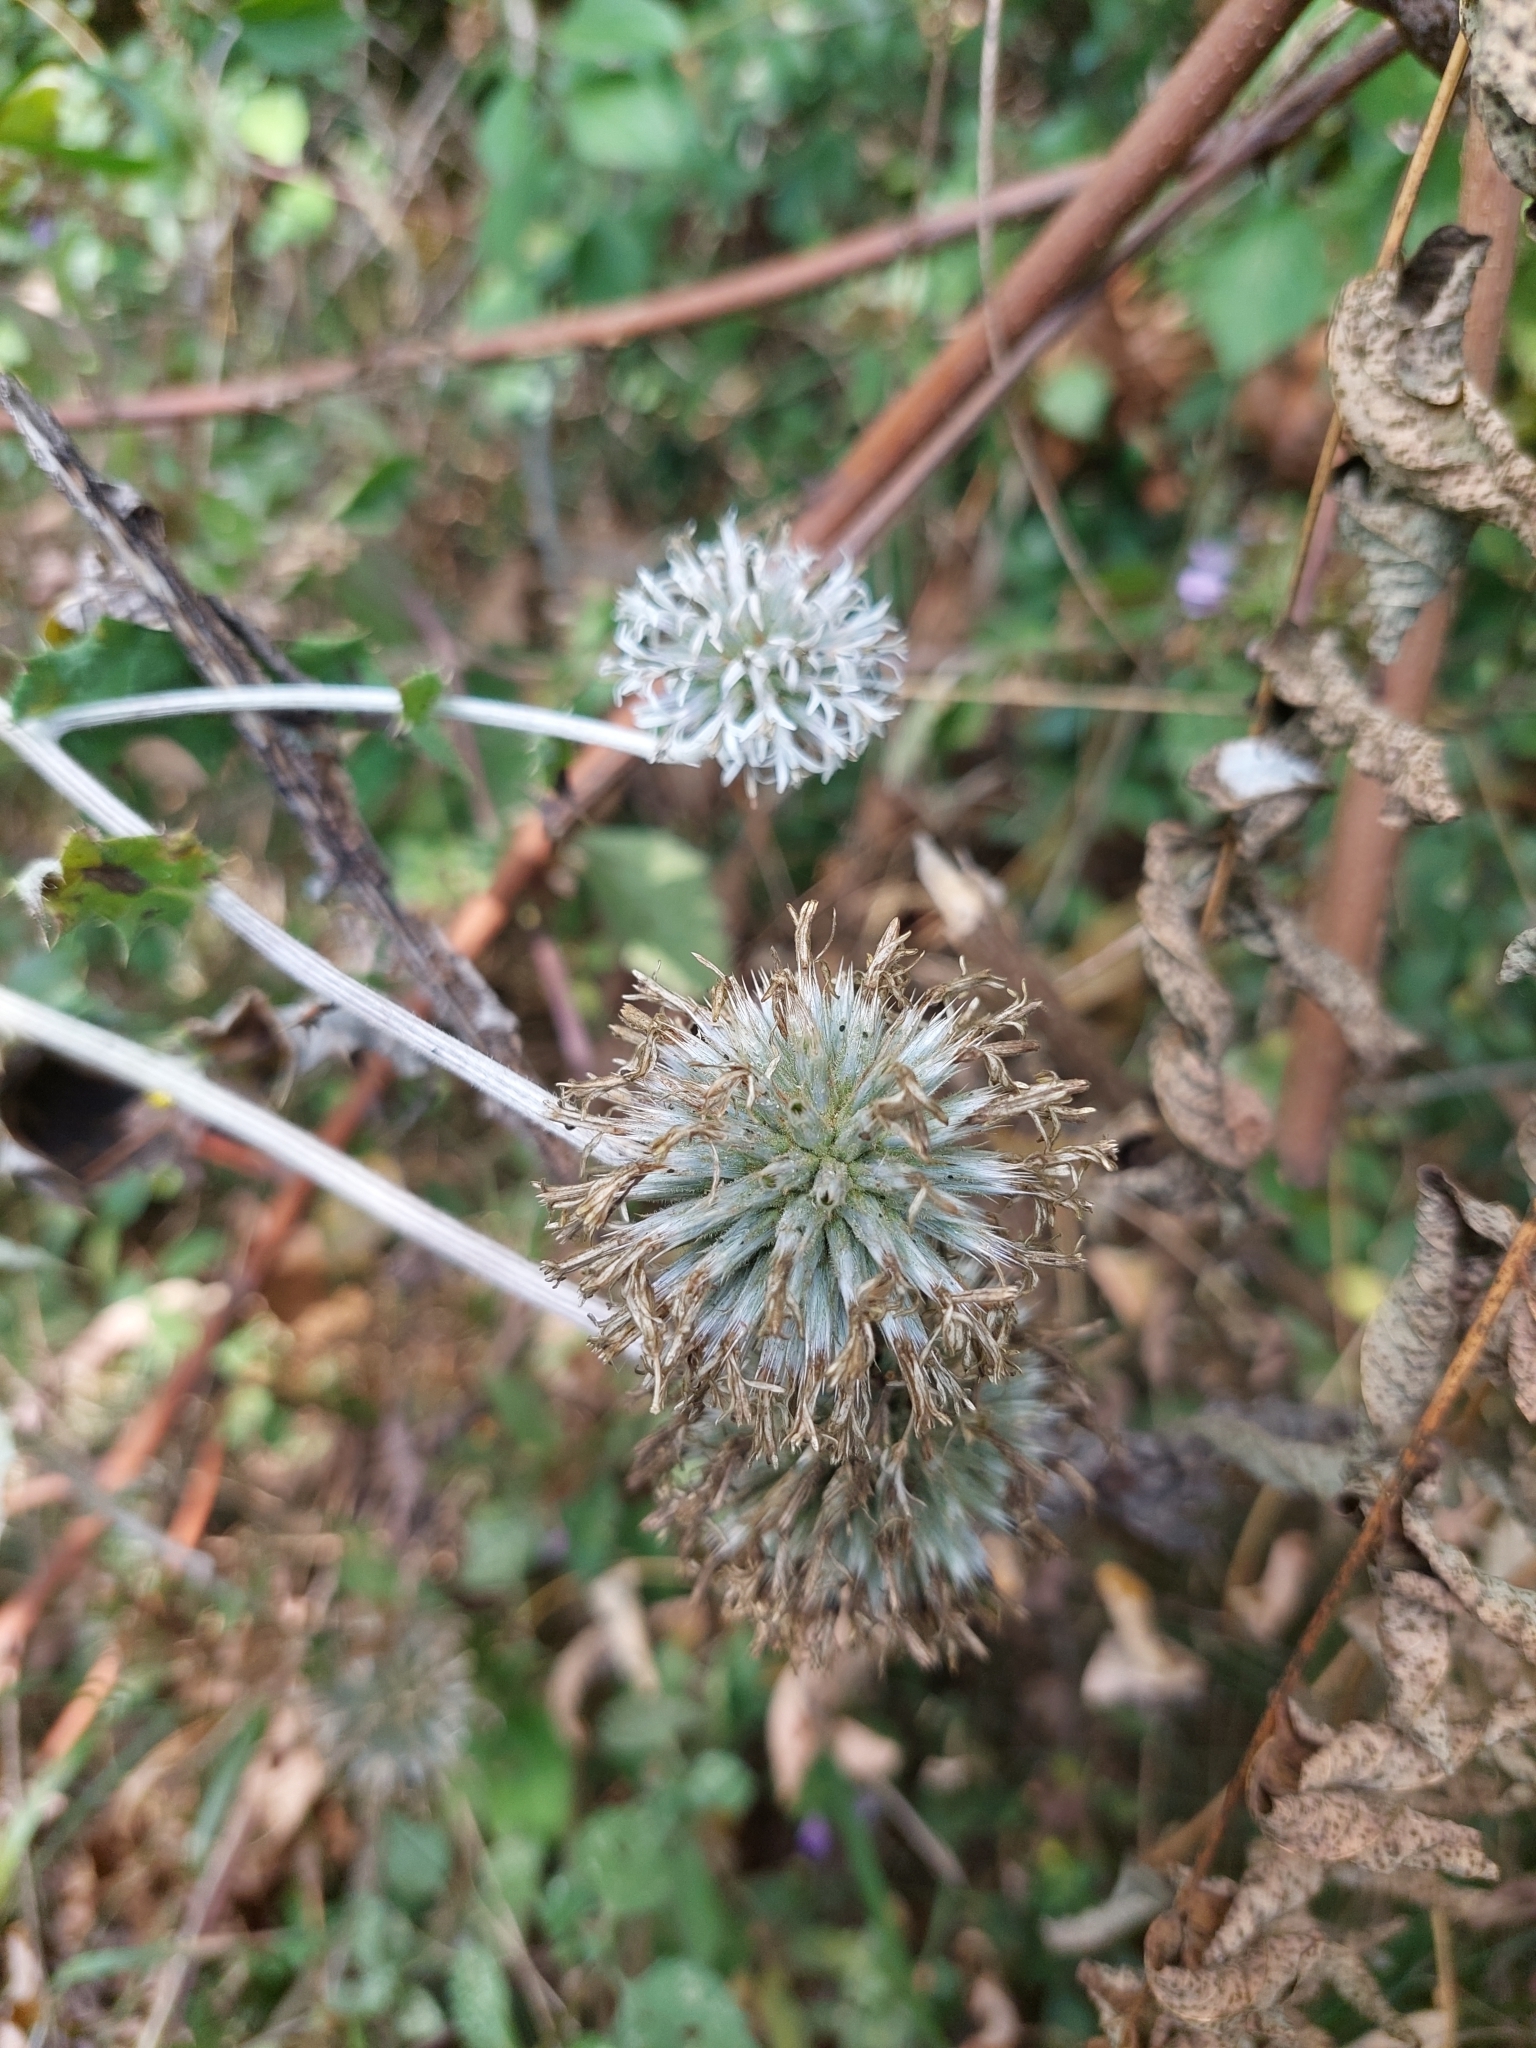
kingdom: Plantae
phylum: Tracheophyta
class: Magnoliopsida
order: Asterales
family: Asteraceae
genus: Echinops
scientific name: Echinops sphaerocephalus
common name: Glandular globe-thistle
